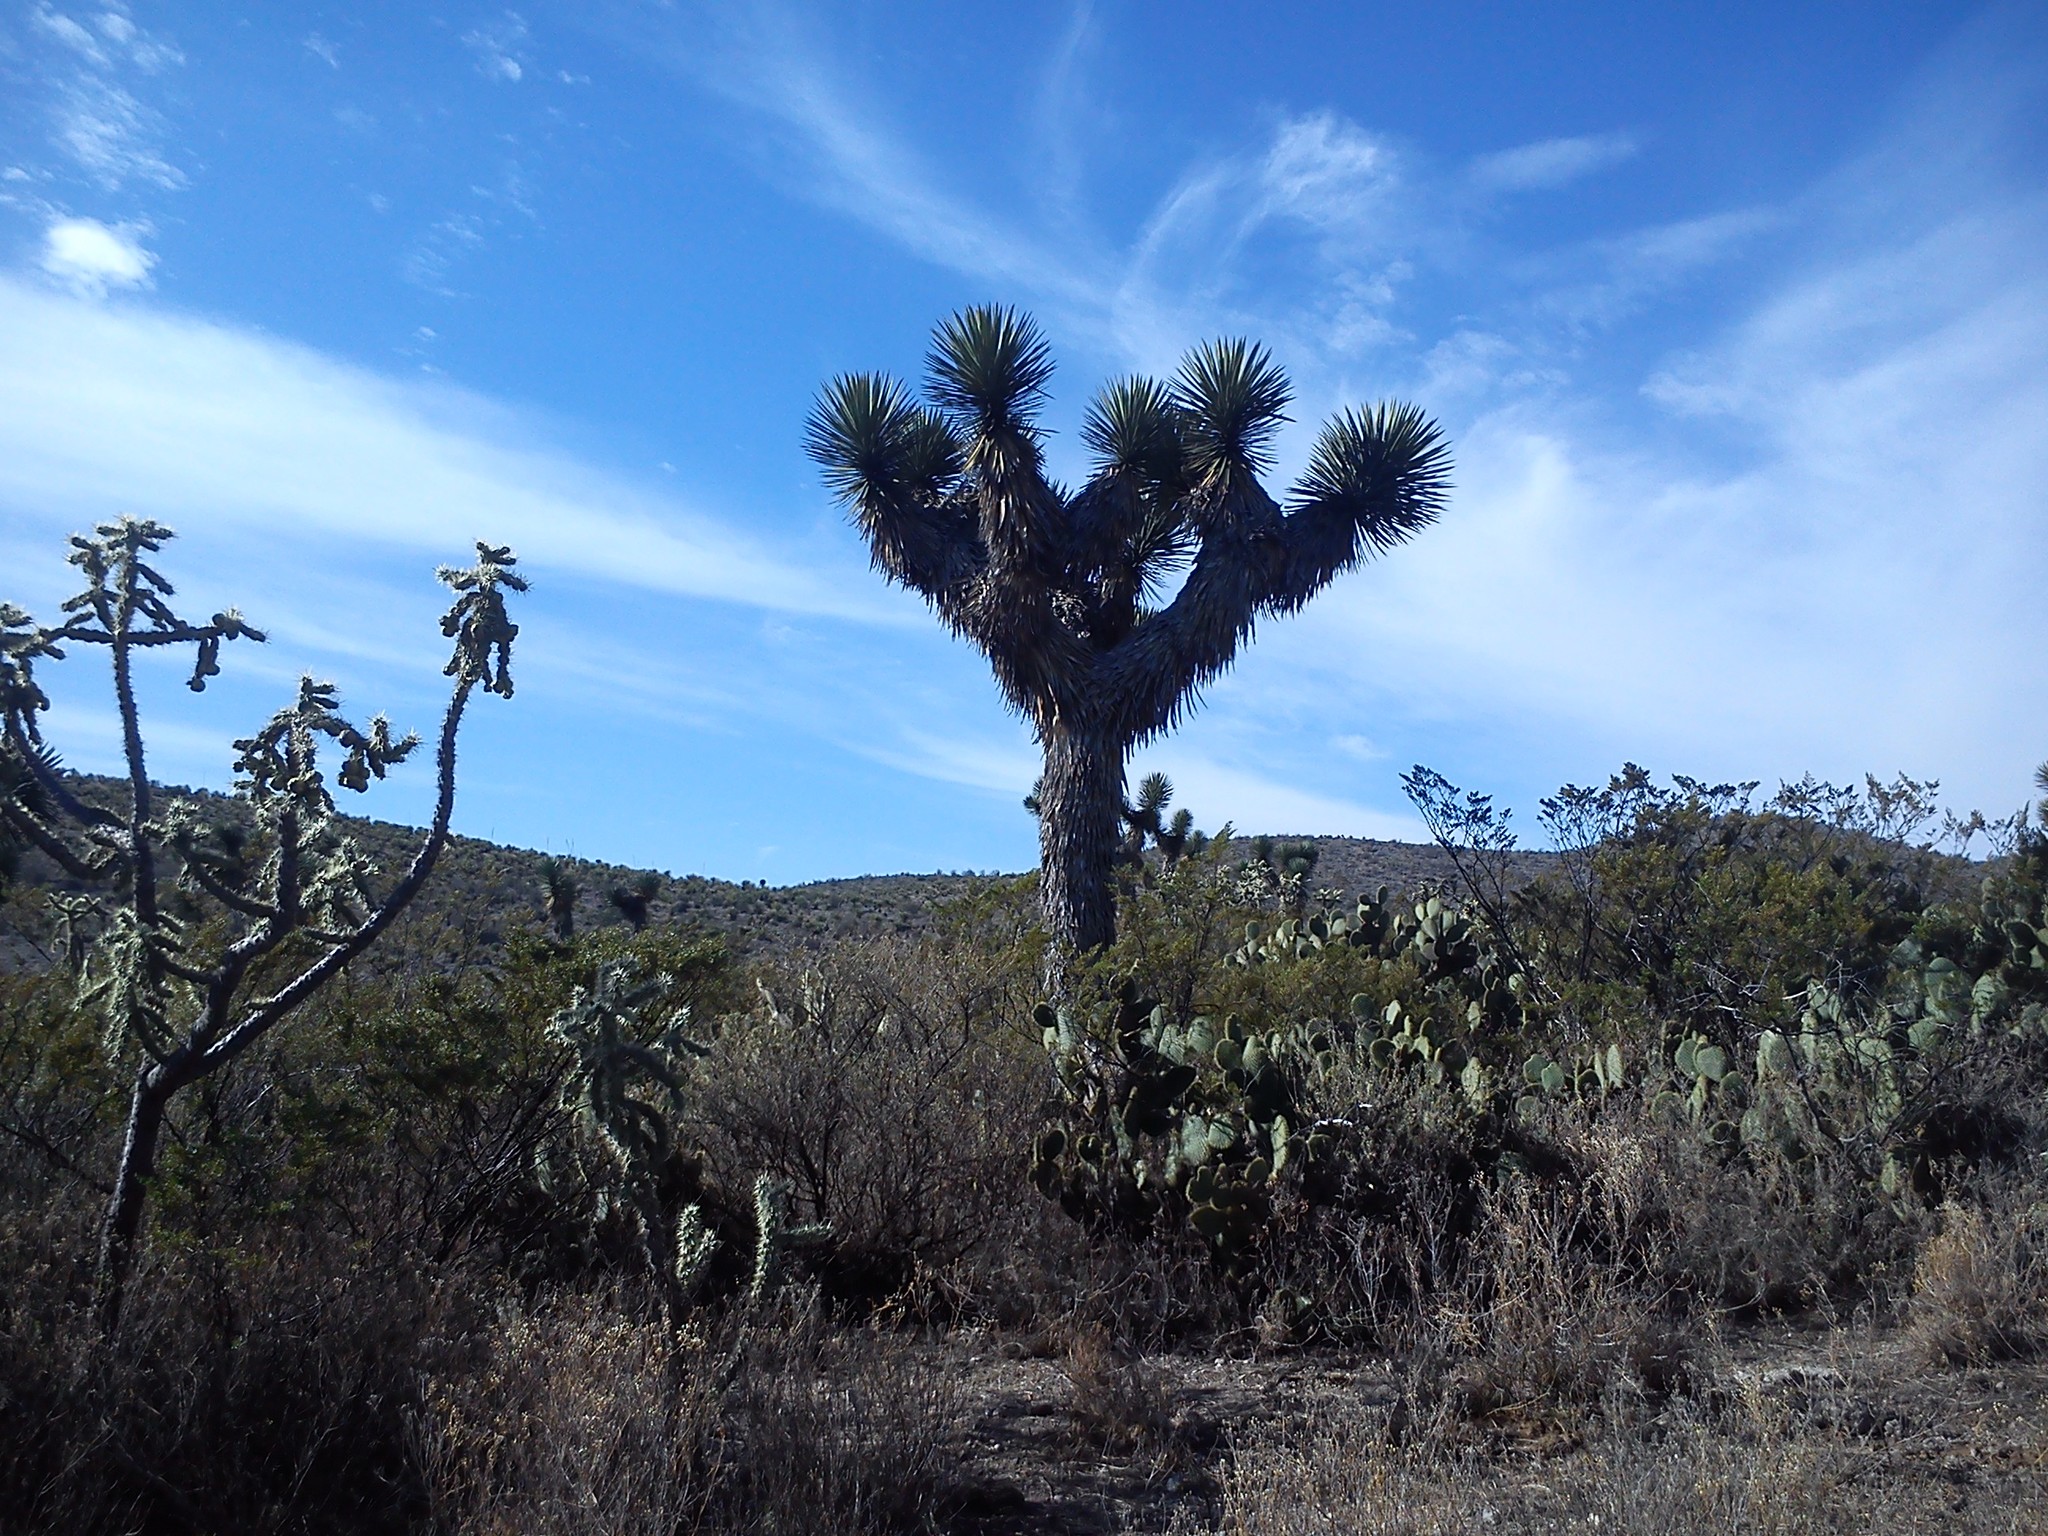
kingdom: Plantae
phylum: Tracheophyta
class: Liliopsida
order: Asparagales
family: Asparagaceae
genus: Yucca
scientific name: Yucca decipiens
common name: Chinese palm
